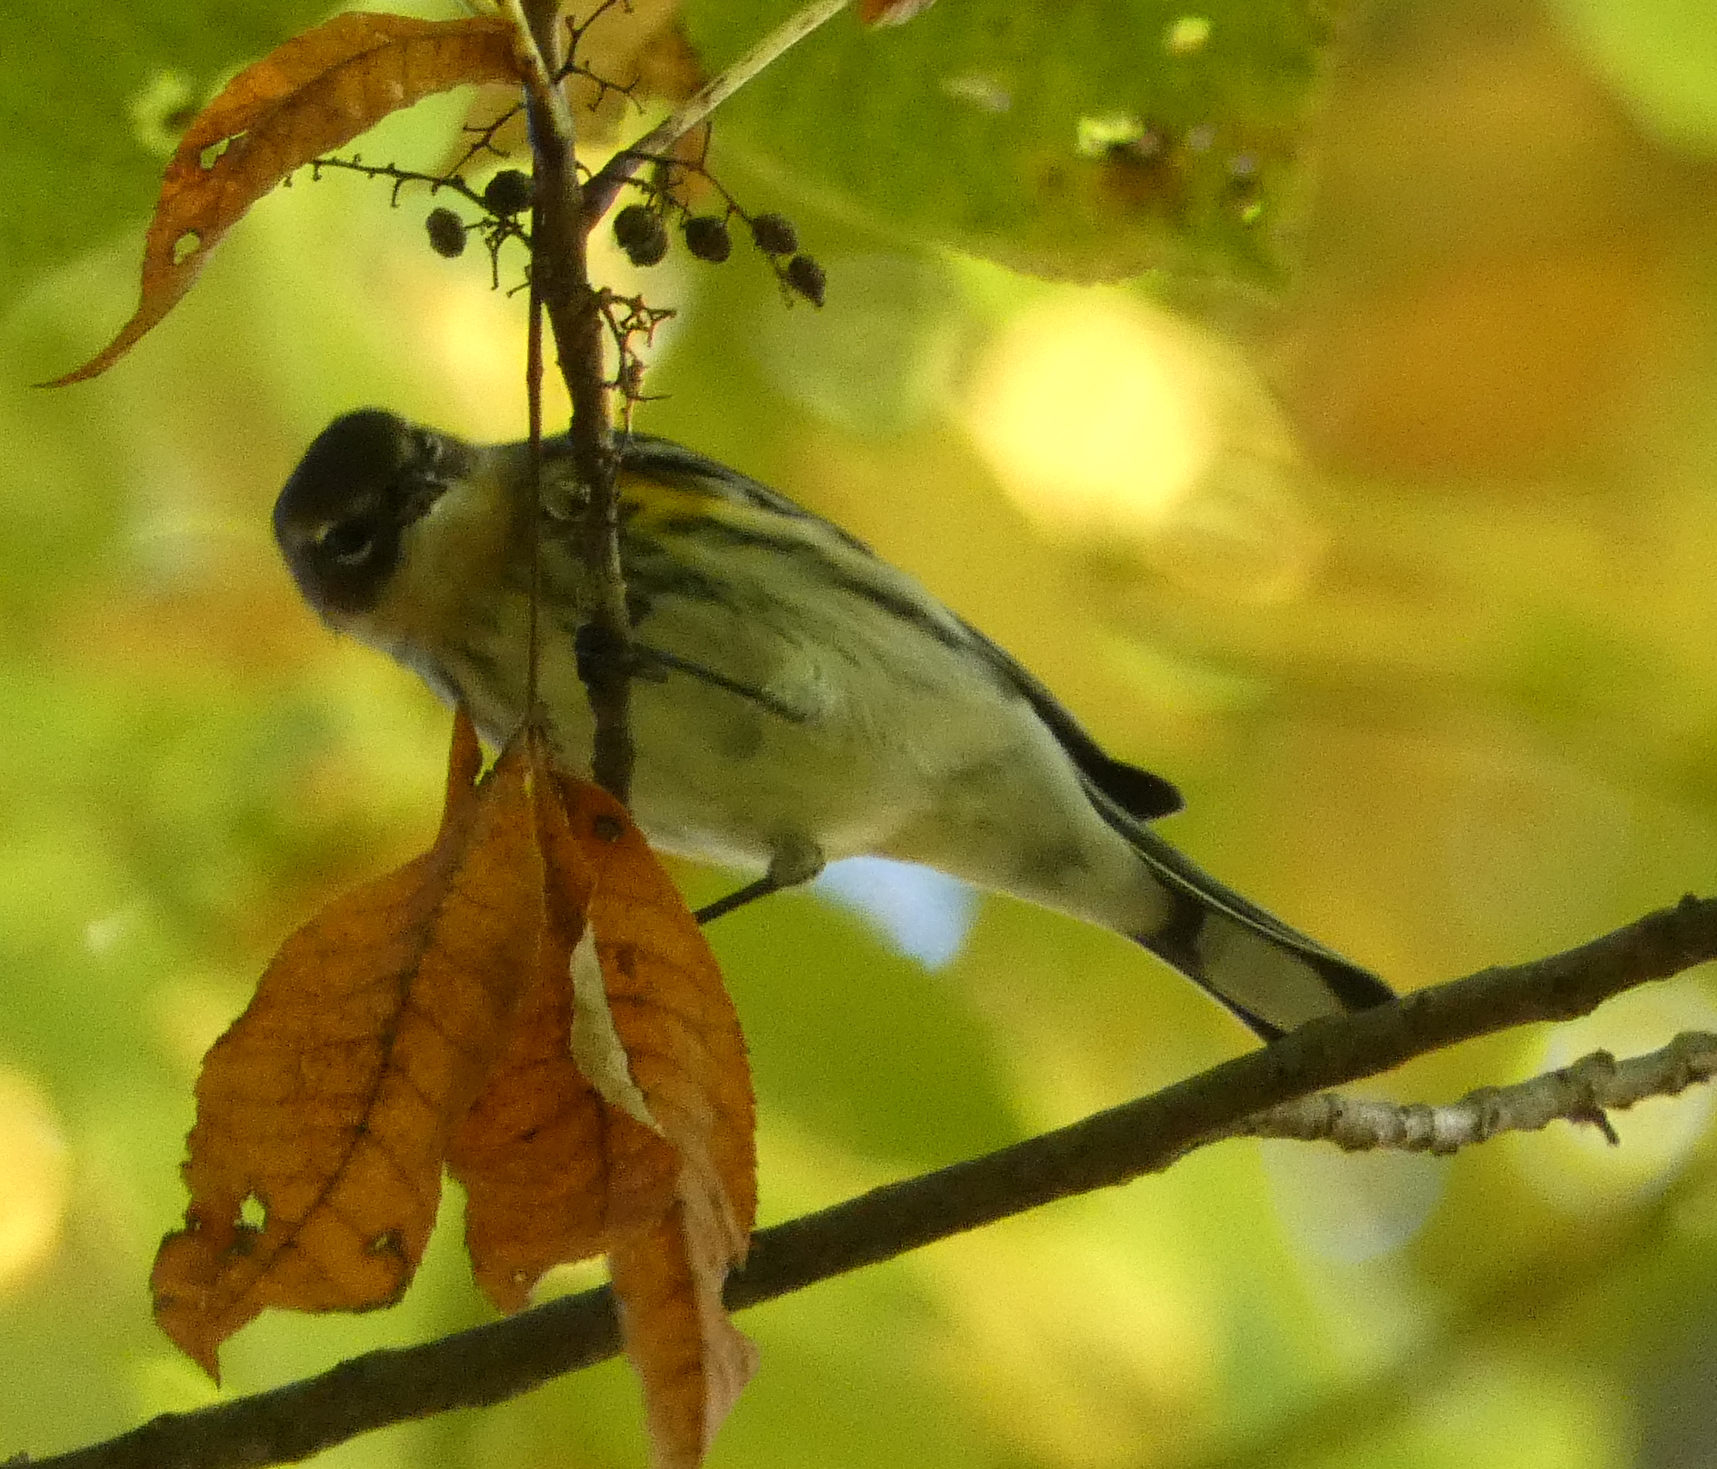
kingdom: Animalia
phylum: Chordata
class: Aves
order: Passeriformes
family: Parulidae
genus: Setophaga
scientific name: Setophaga coronata
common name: Myrtle warbler
